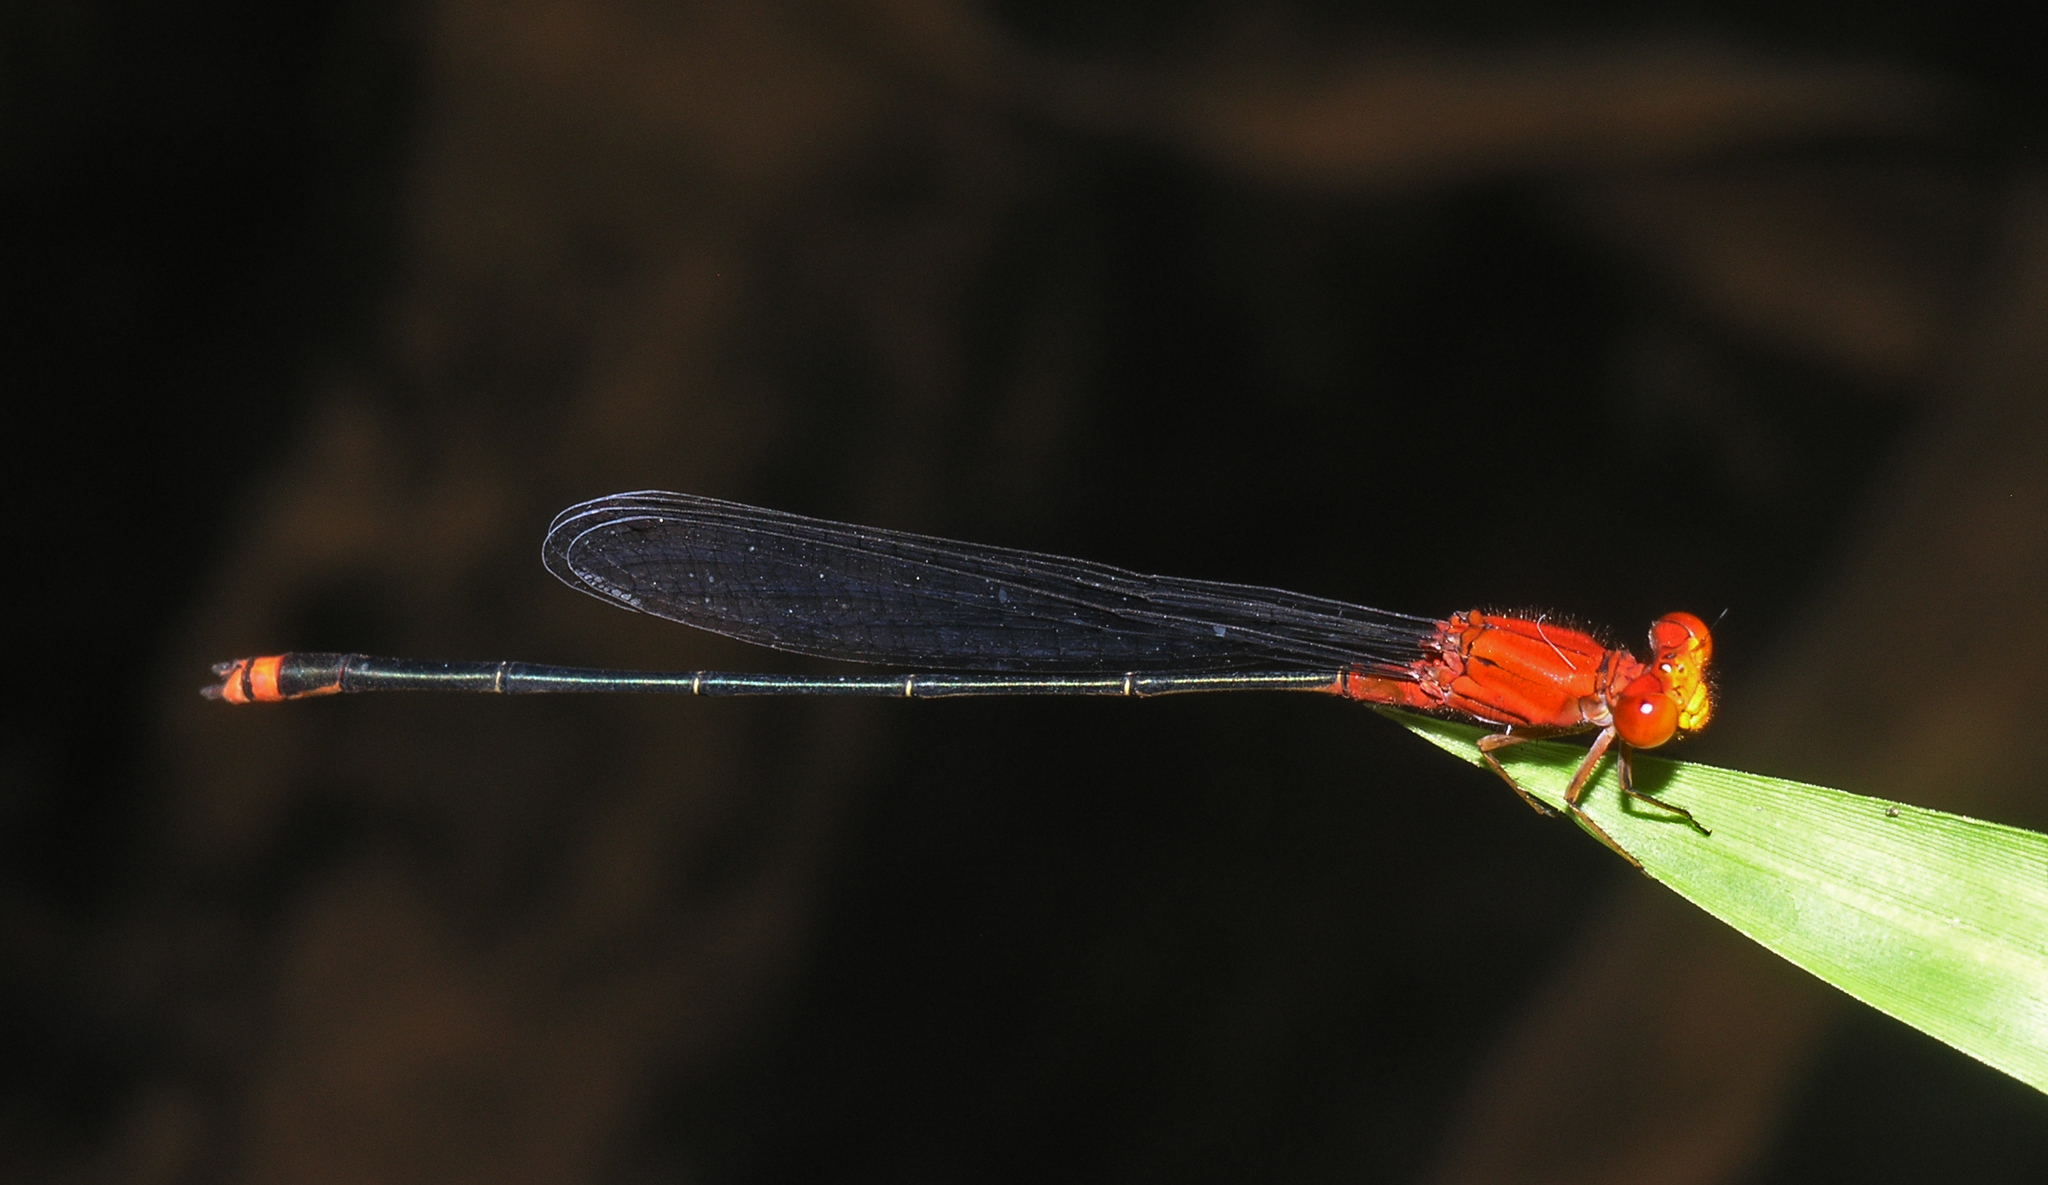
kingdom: Animalia
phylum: Arthropoda
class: Insecta
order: Odonata
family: Coenagrionidae
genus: Pseudagrion
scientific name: Pseudagrion pilidorsum
